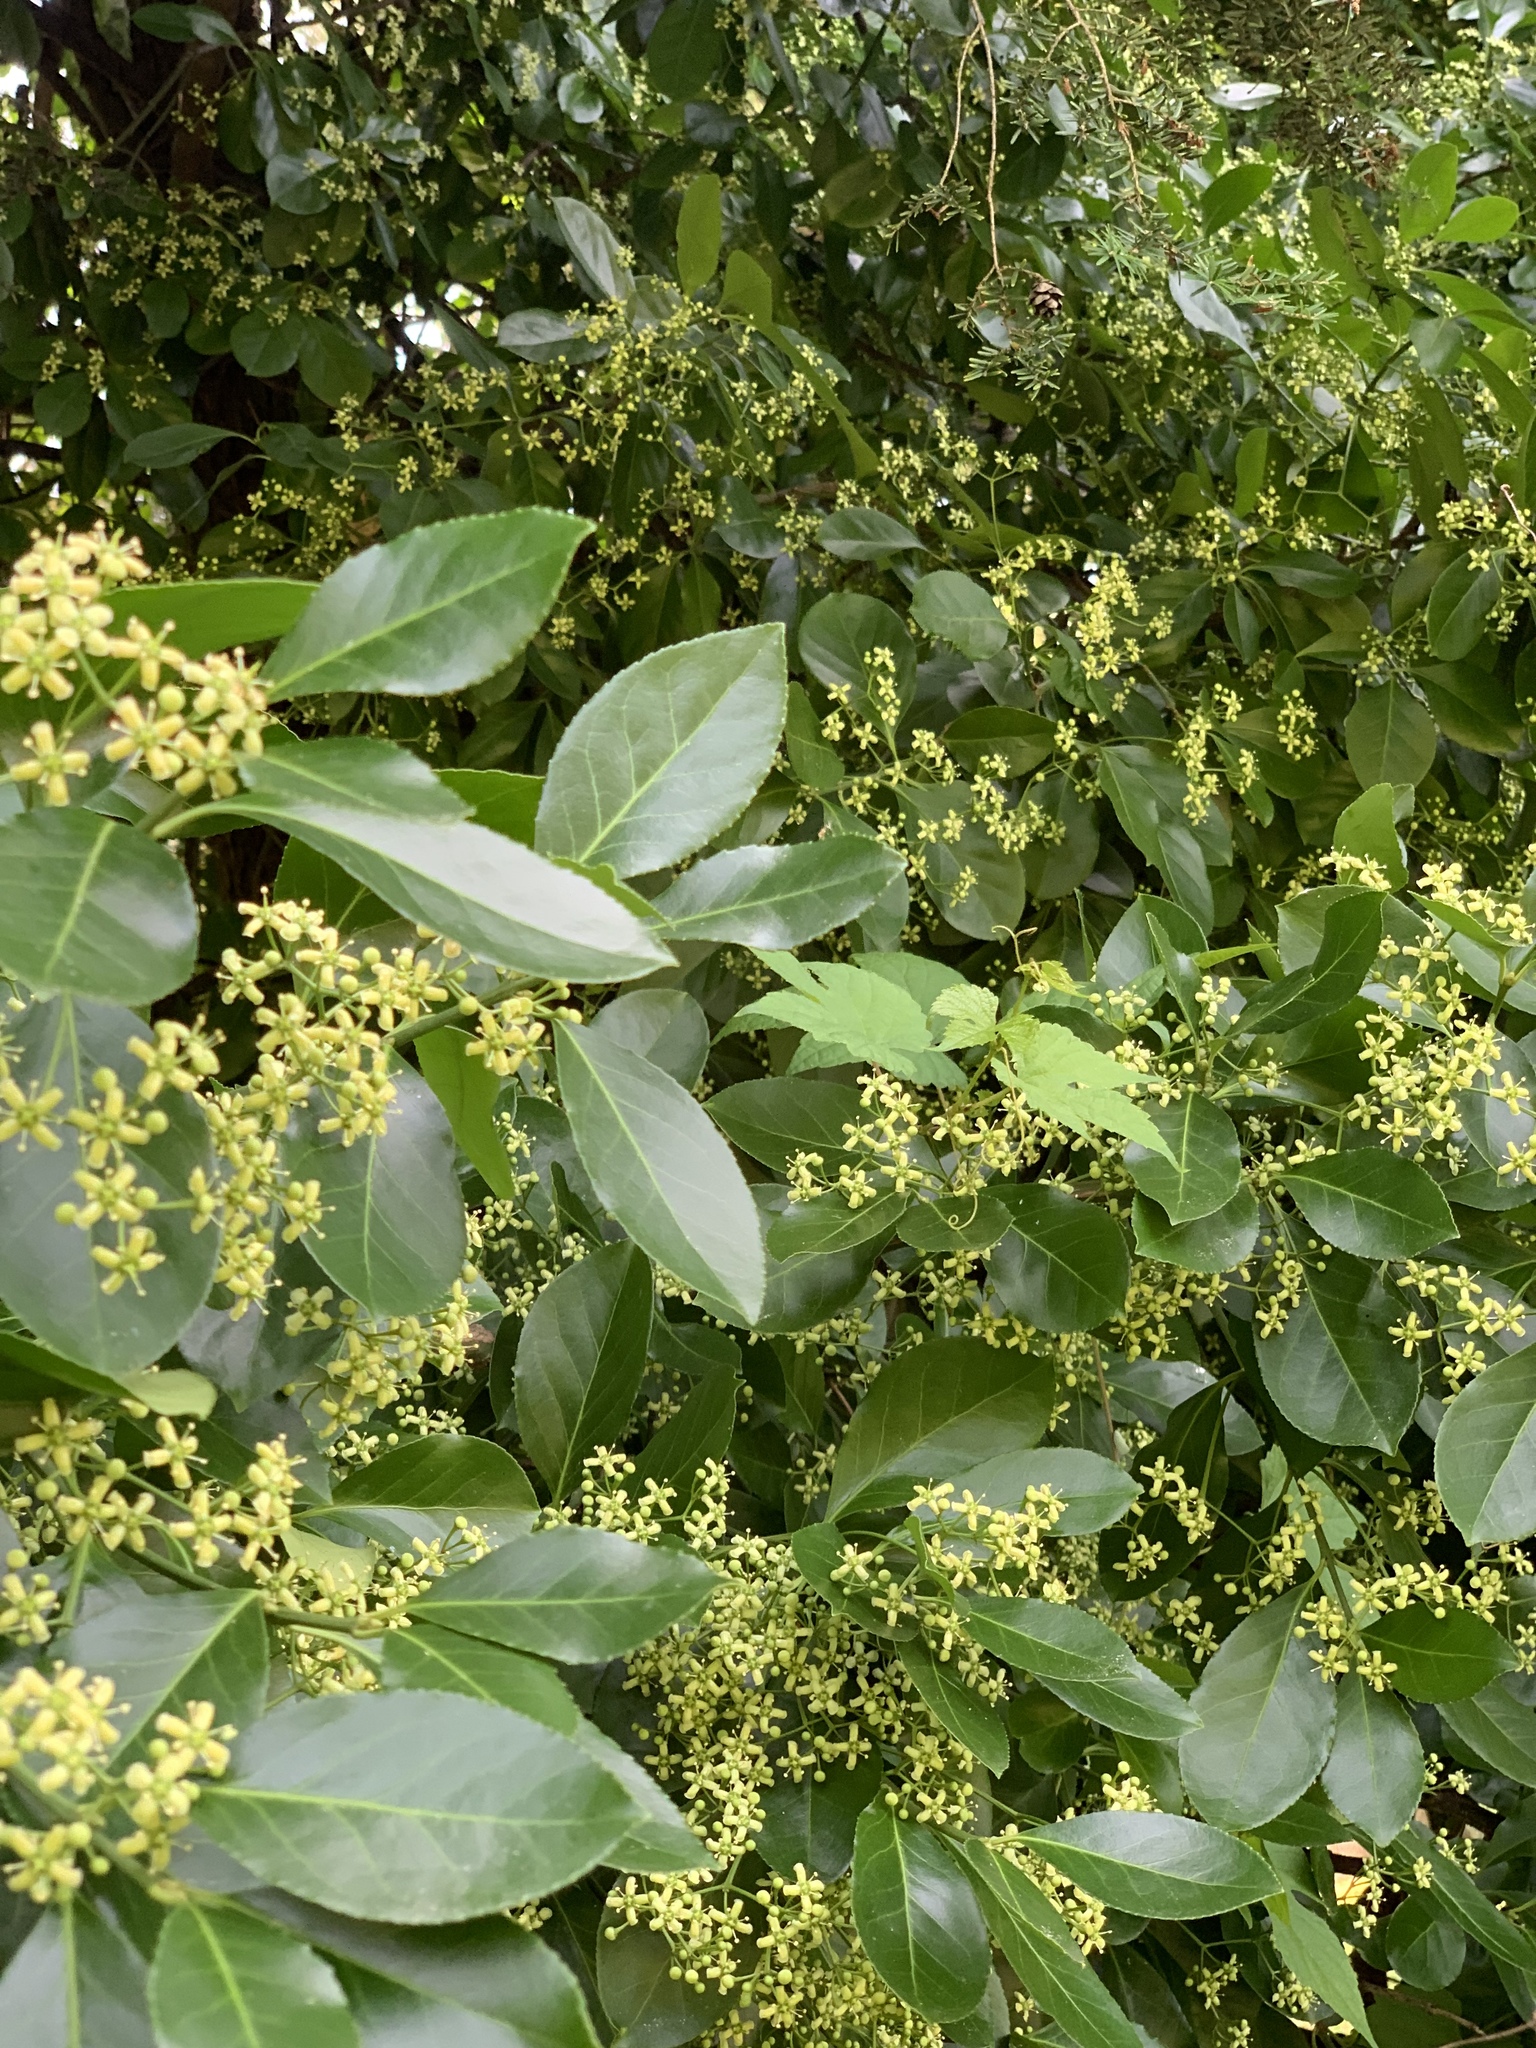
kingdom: Plantae
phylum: Tracheophyta
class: Magnoliopsida
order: Celastrales
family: Celastraceae
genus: Euonymus
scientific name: Euonymus japonicus
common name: Japanese spindletree
